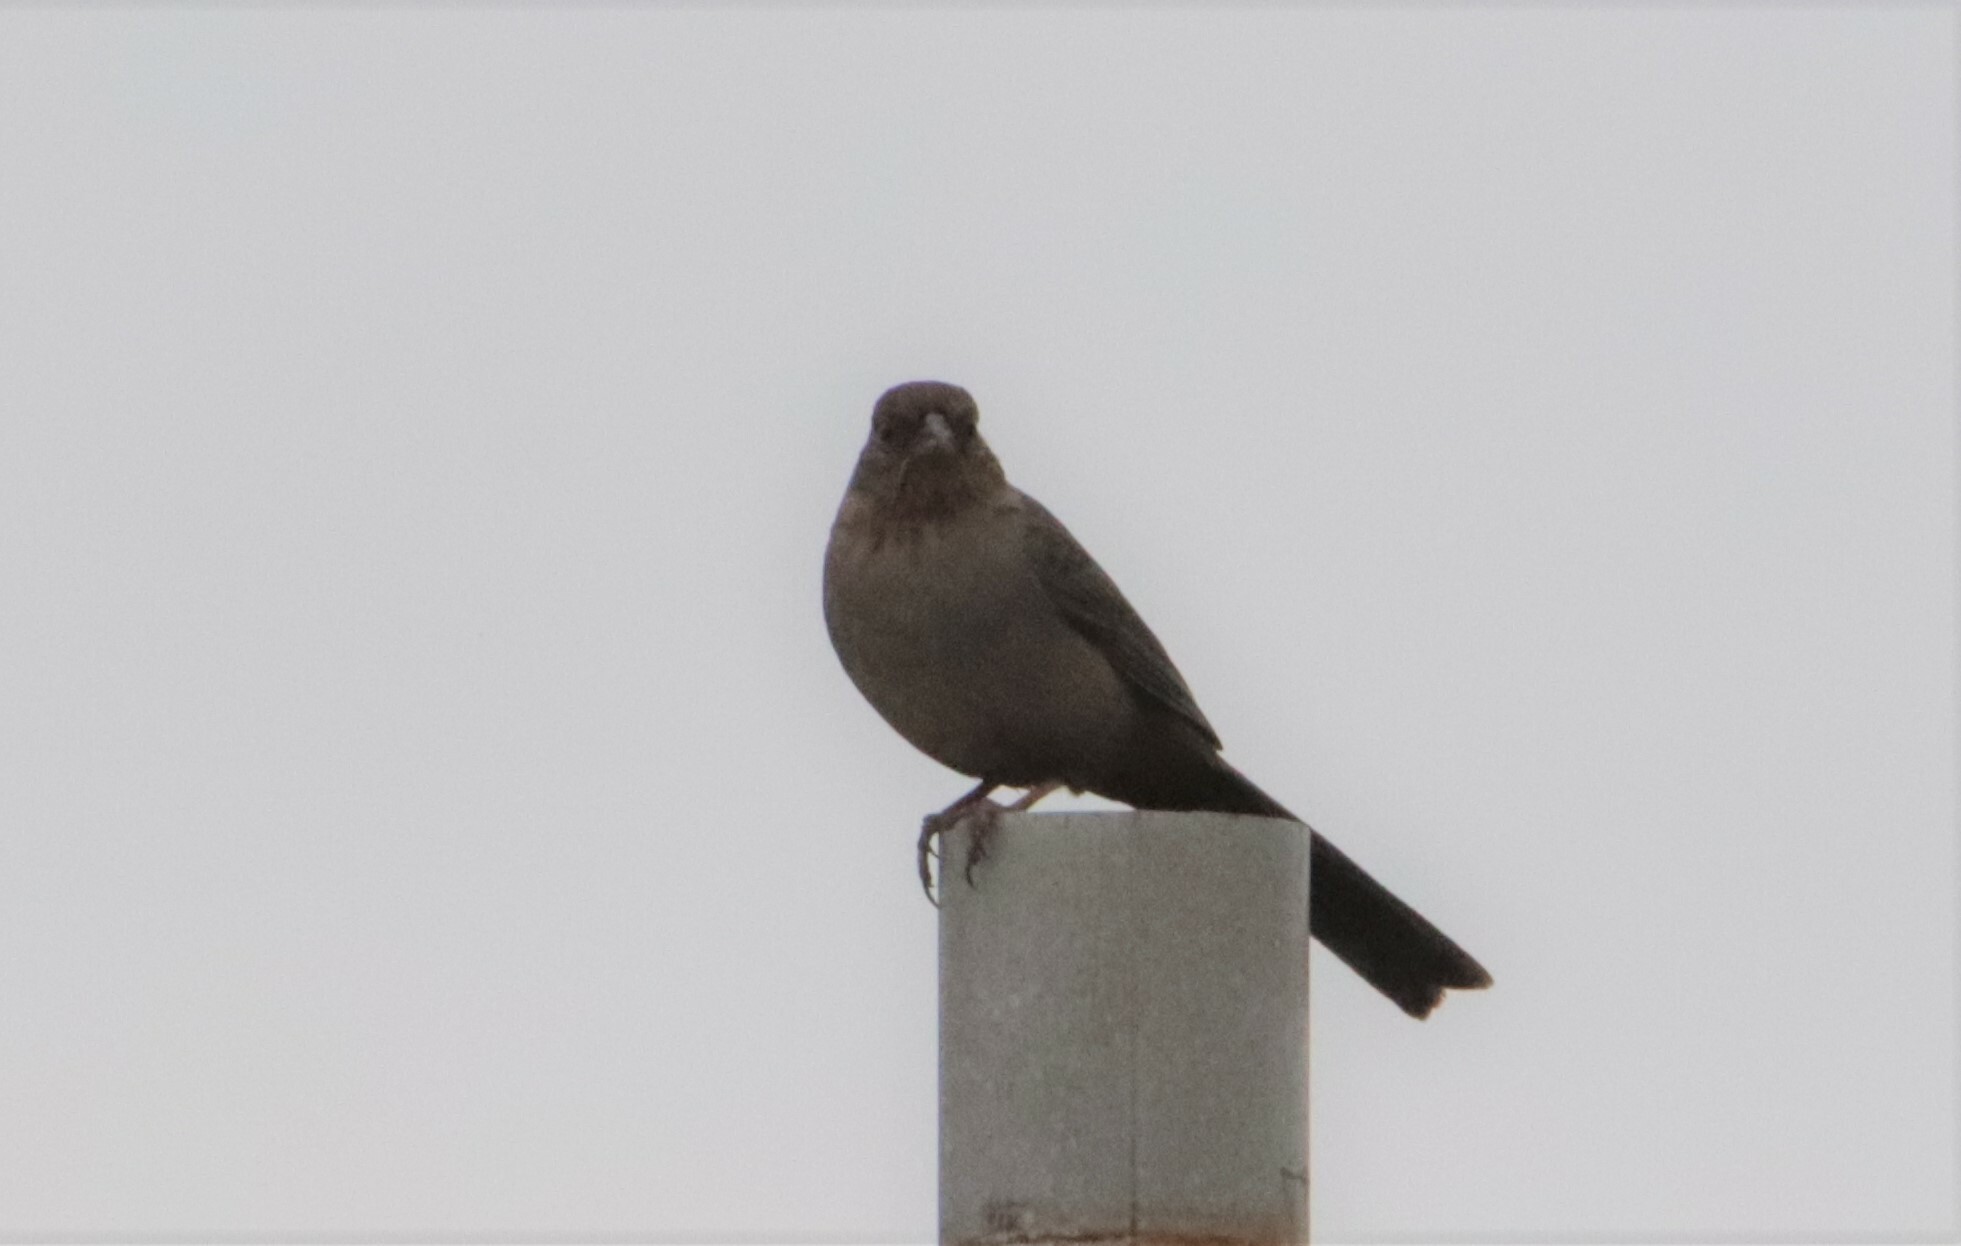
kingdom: Animalia
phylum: Chordata
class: Aves
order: Passeriformes
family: Passerellidae
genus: Melozone
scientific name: Melozone crissalis
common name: California towhee
